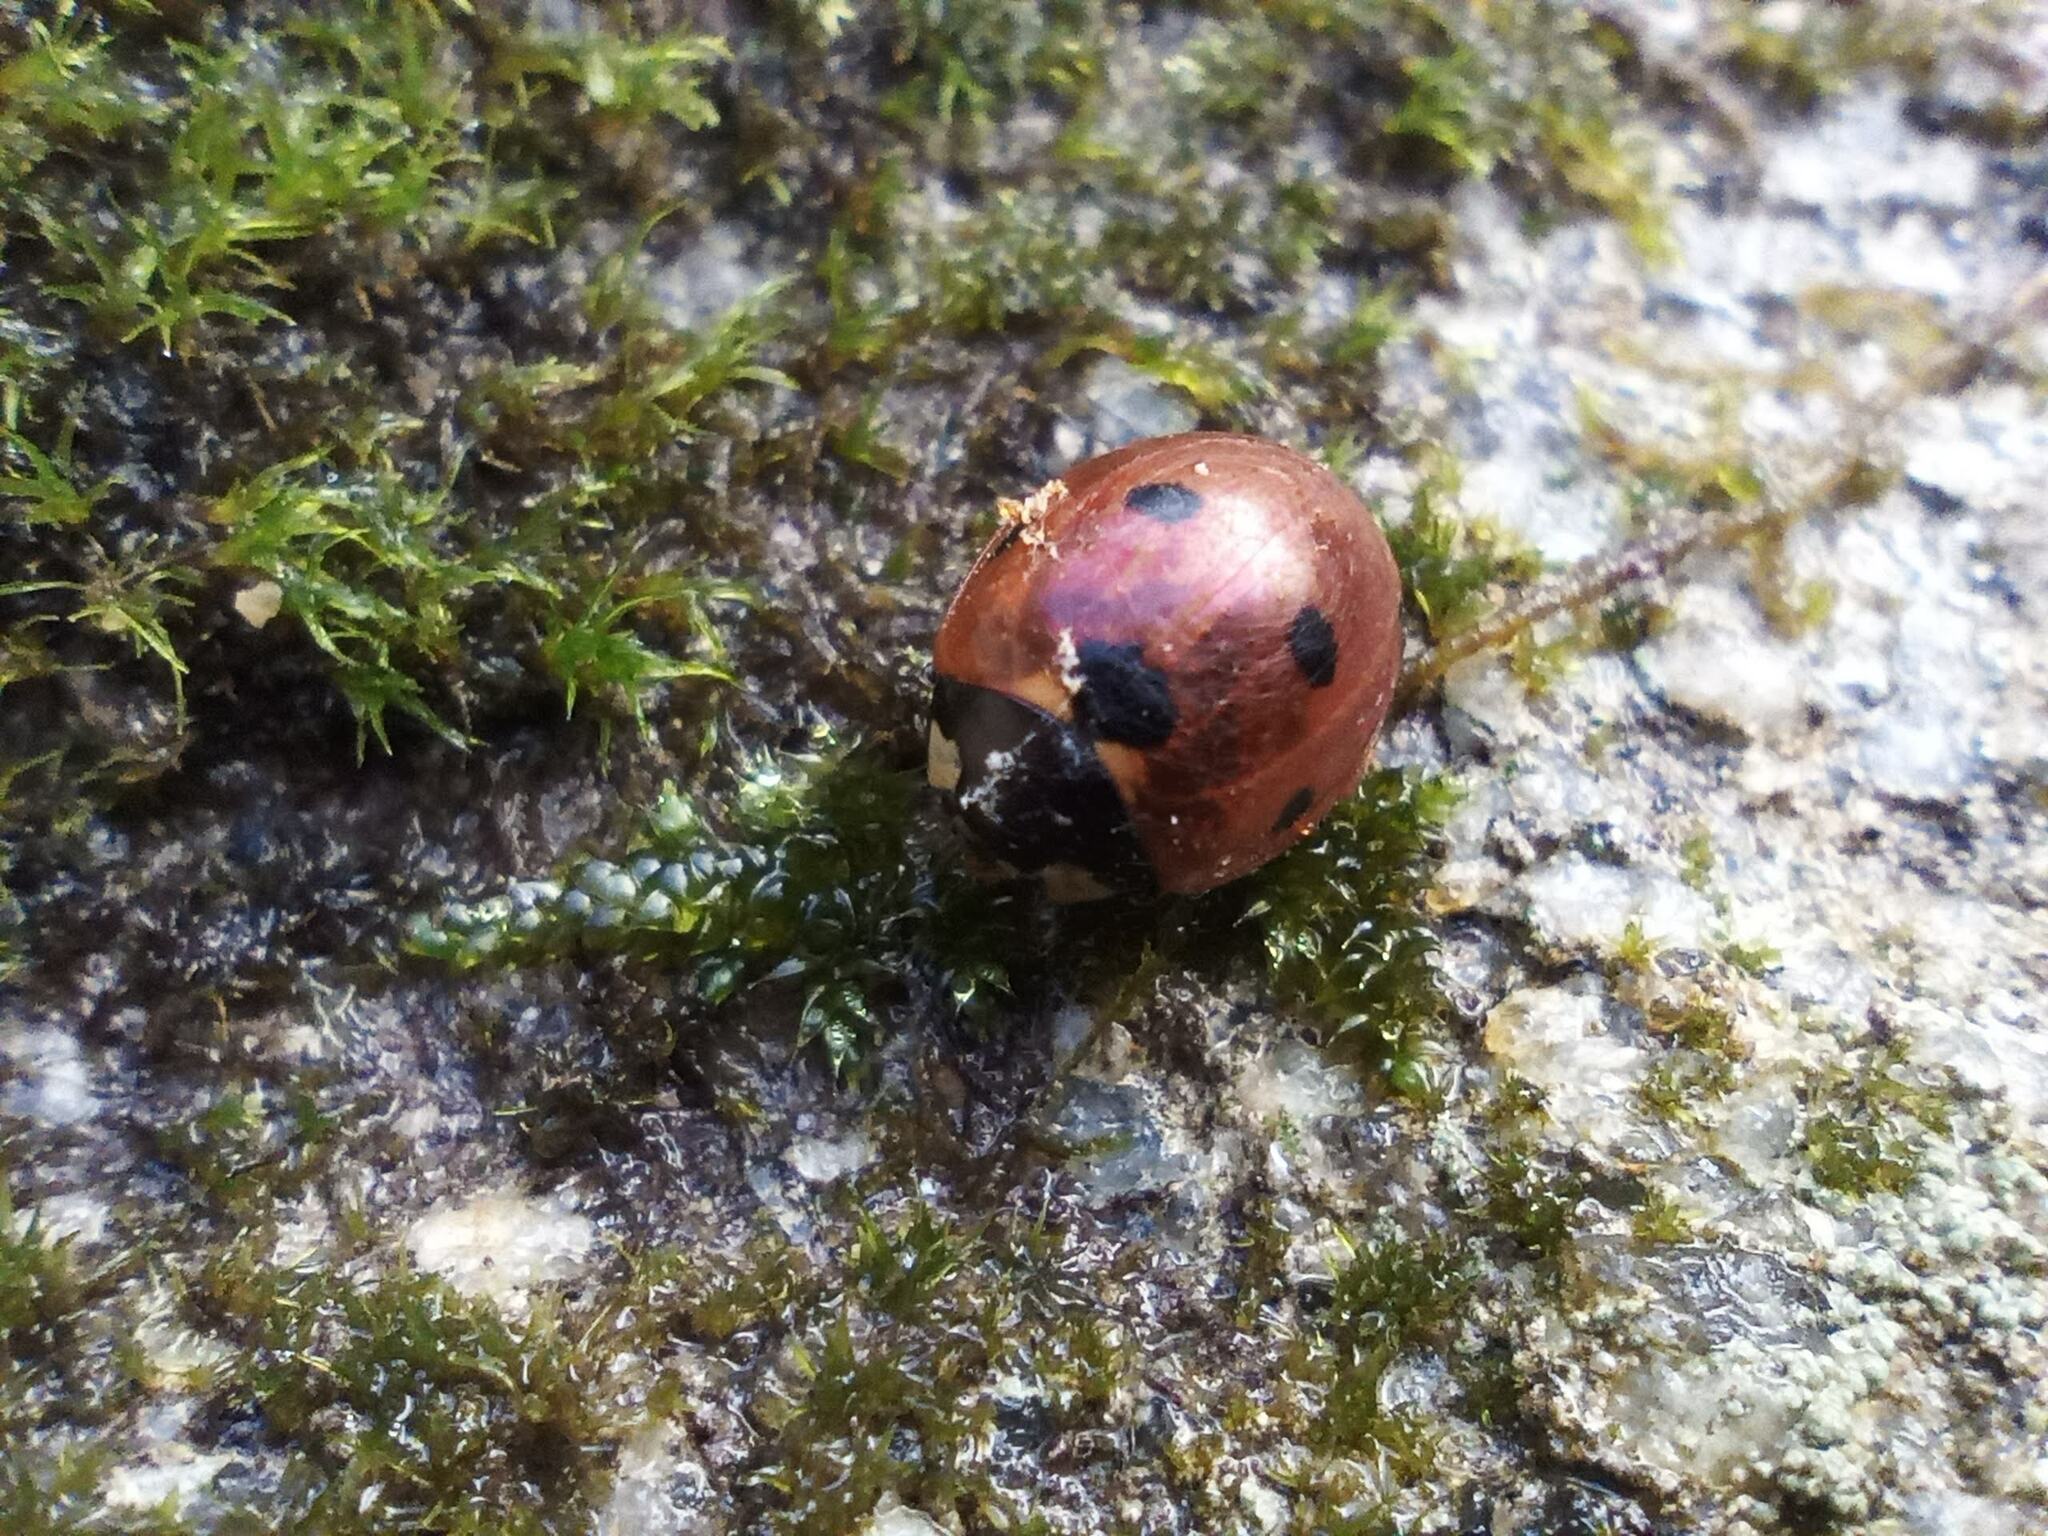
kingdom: Animalia
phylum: Arthropoda
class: Insecta
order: Coleoptera
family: Coccinellidae
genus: Coccinella
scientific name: Coccinella septempunctata
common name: Sevenspotted lady beetle
